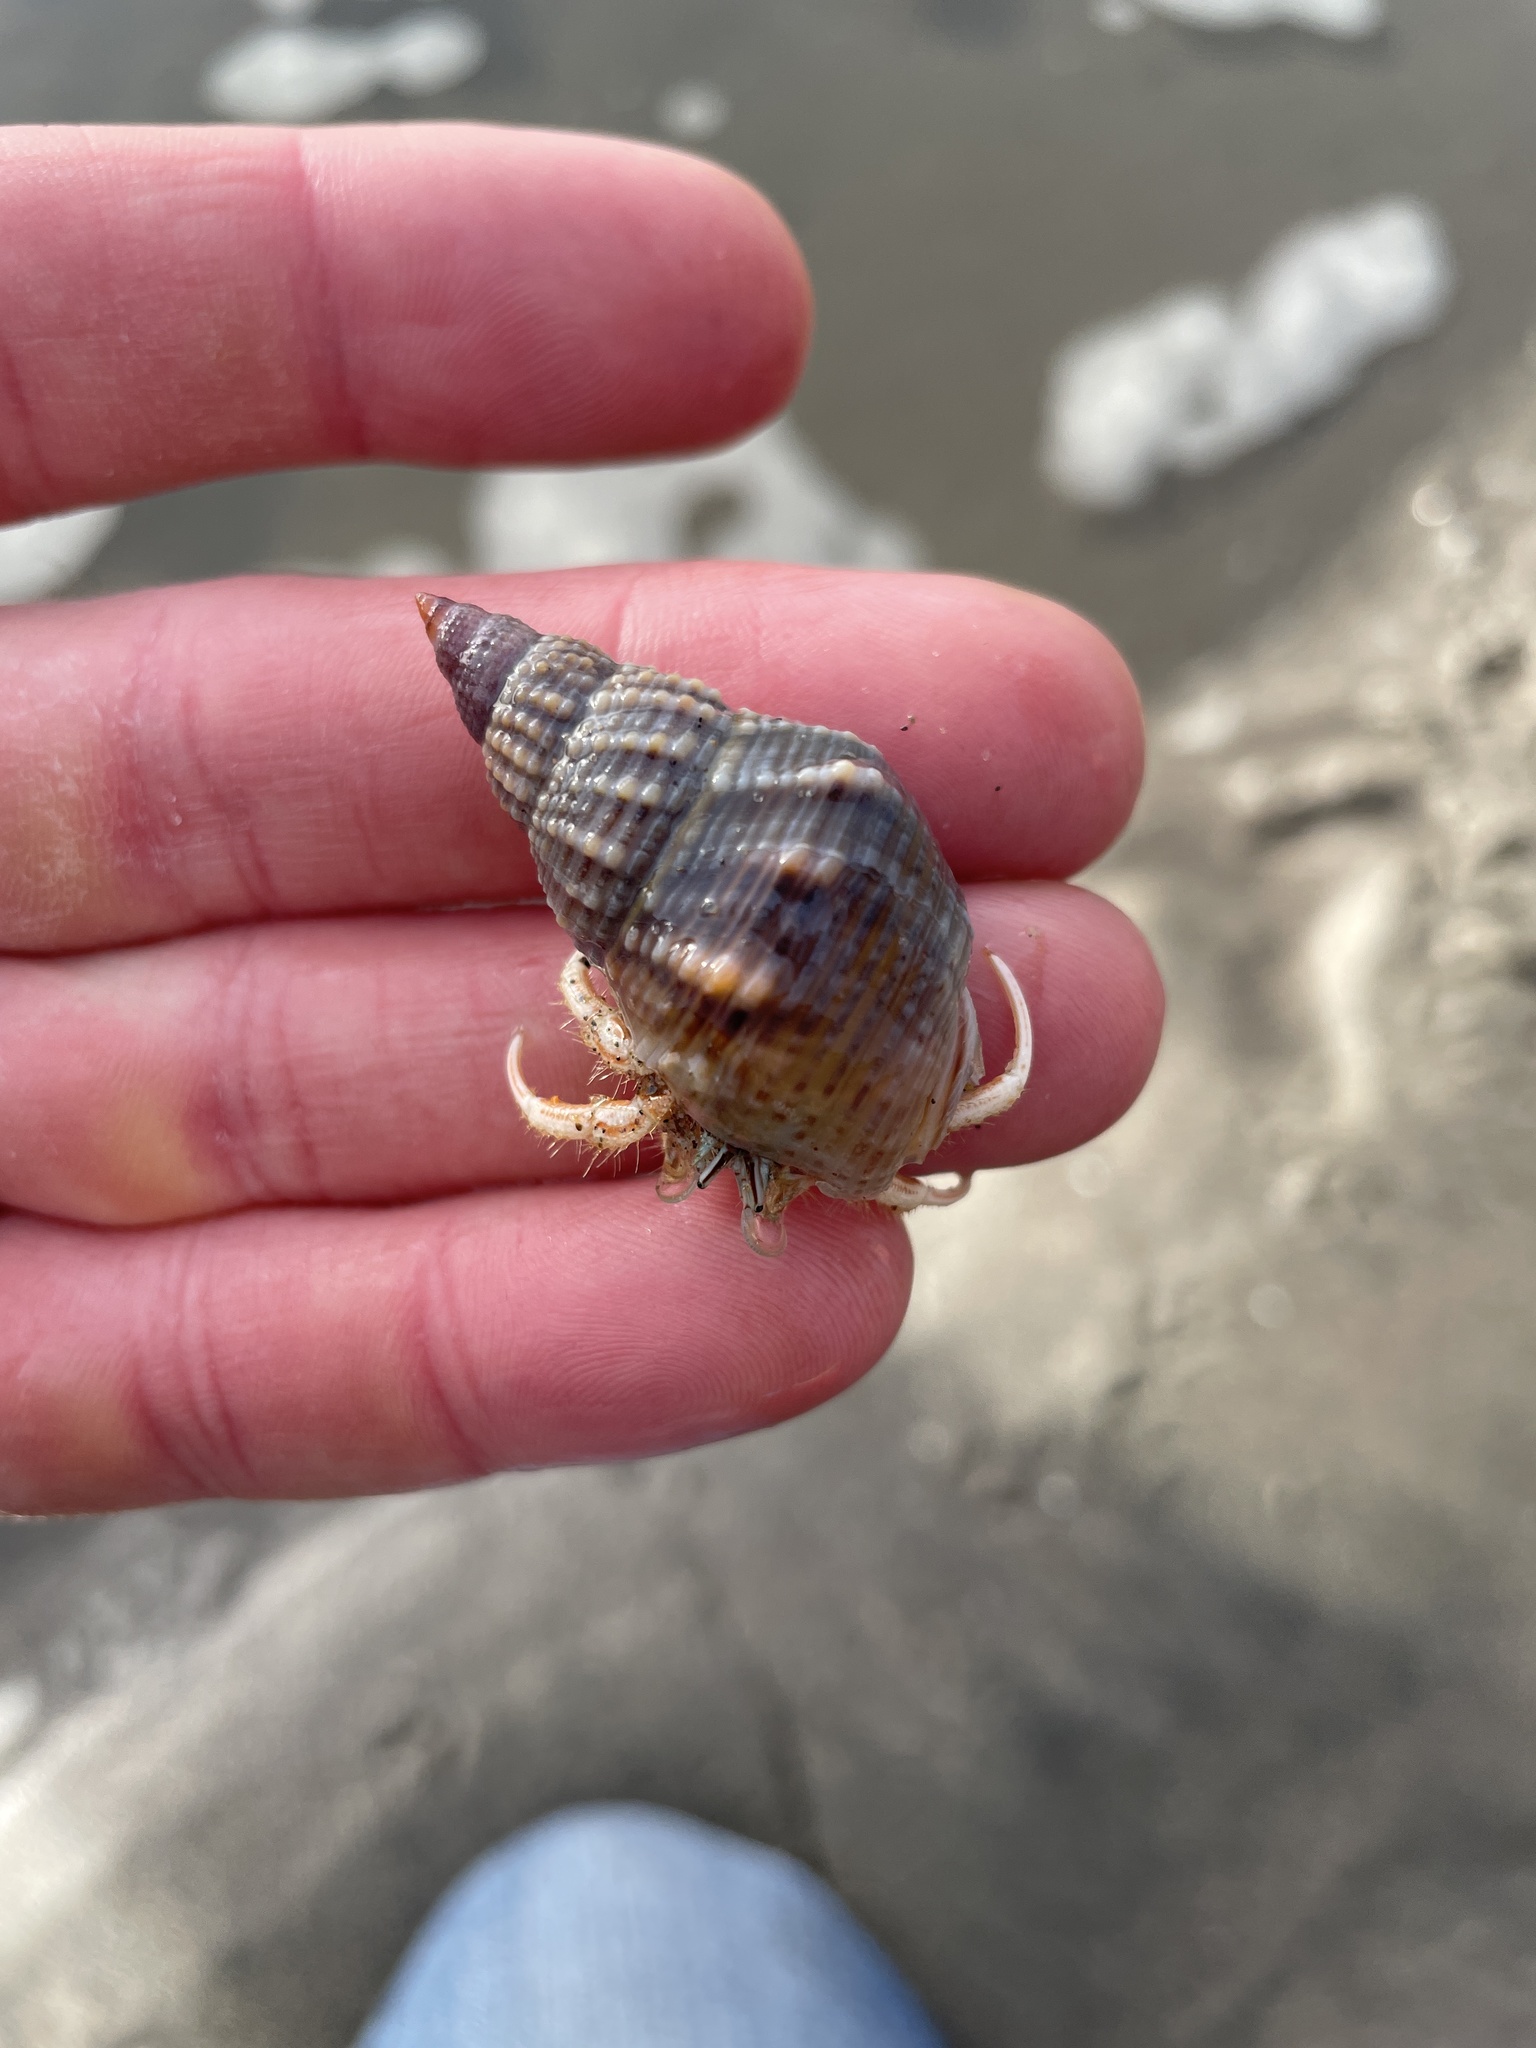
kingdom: Animalia
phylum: Mollusca
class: Gastropoda
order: Neogastropoda
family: Nassariidae
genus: Caesia
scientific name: Caesia fossata
